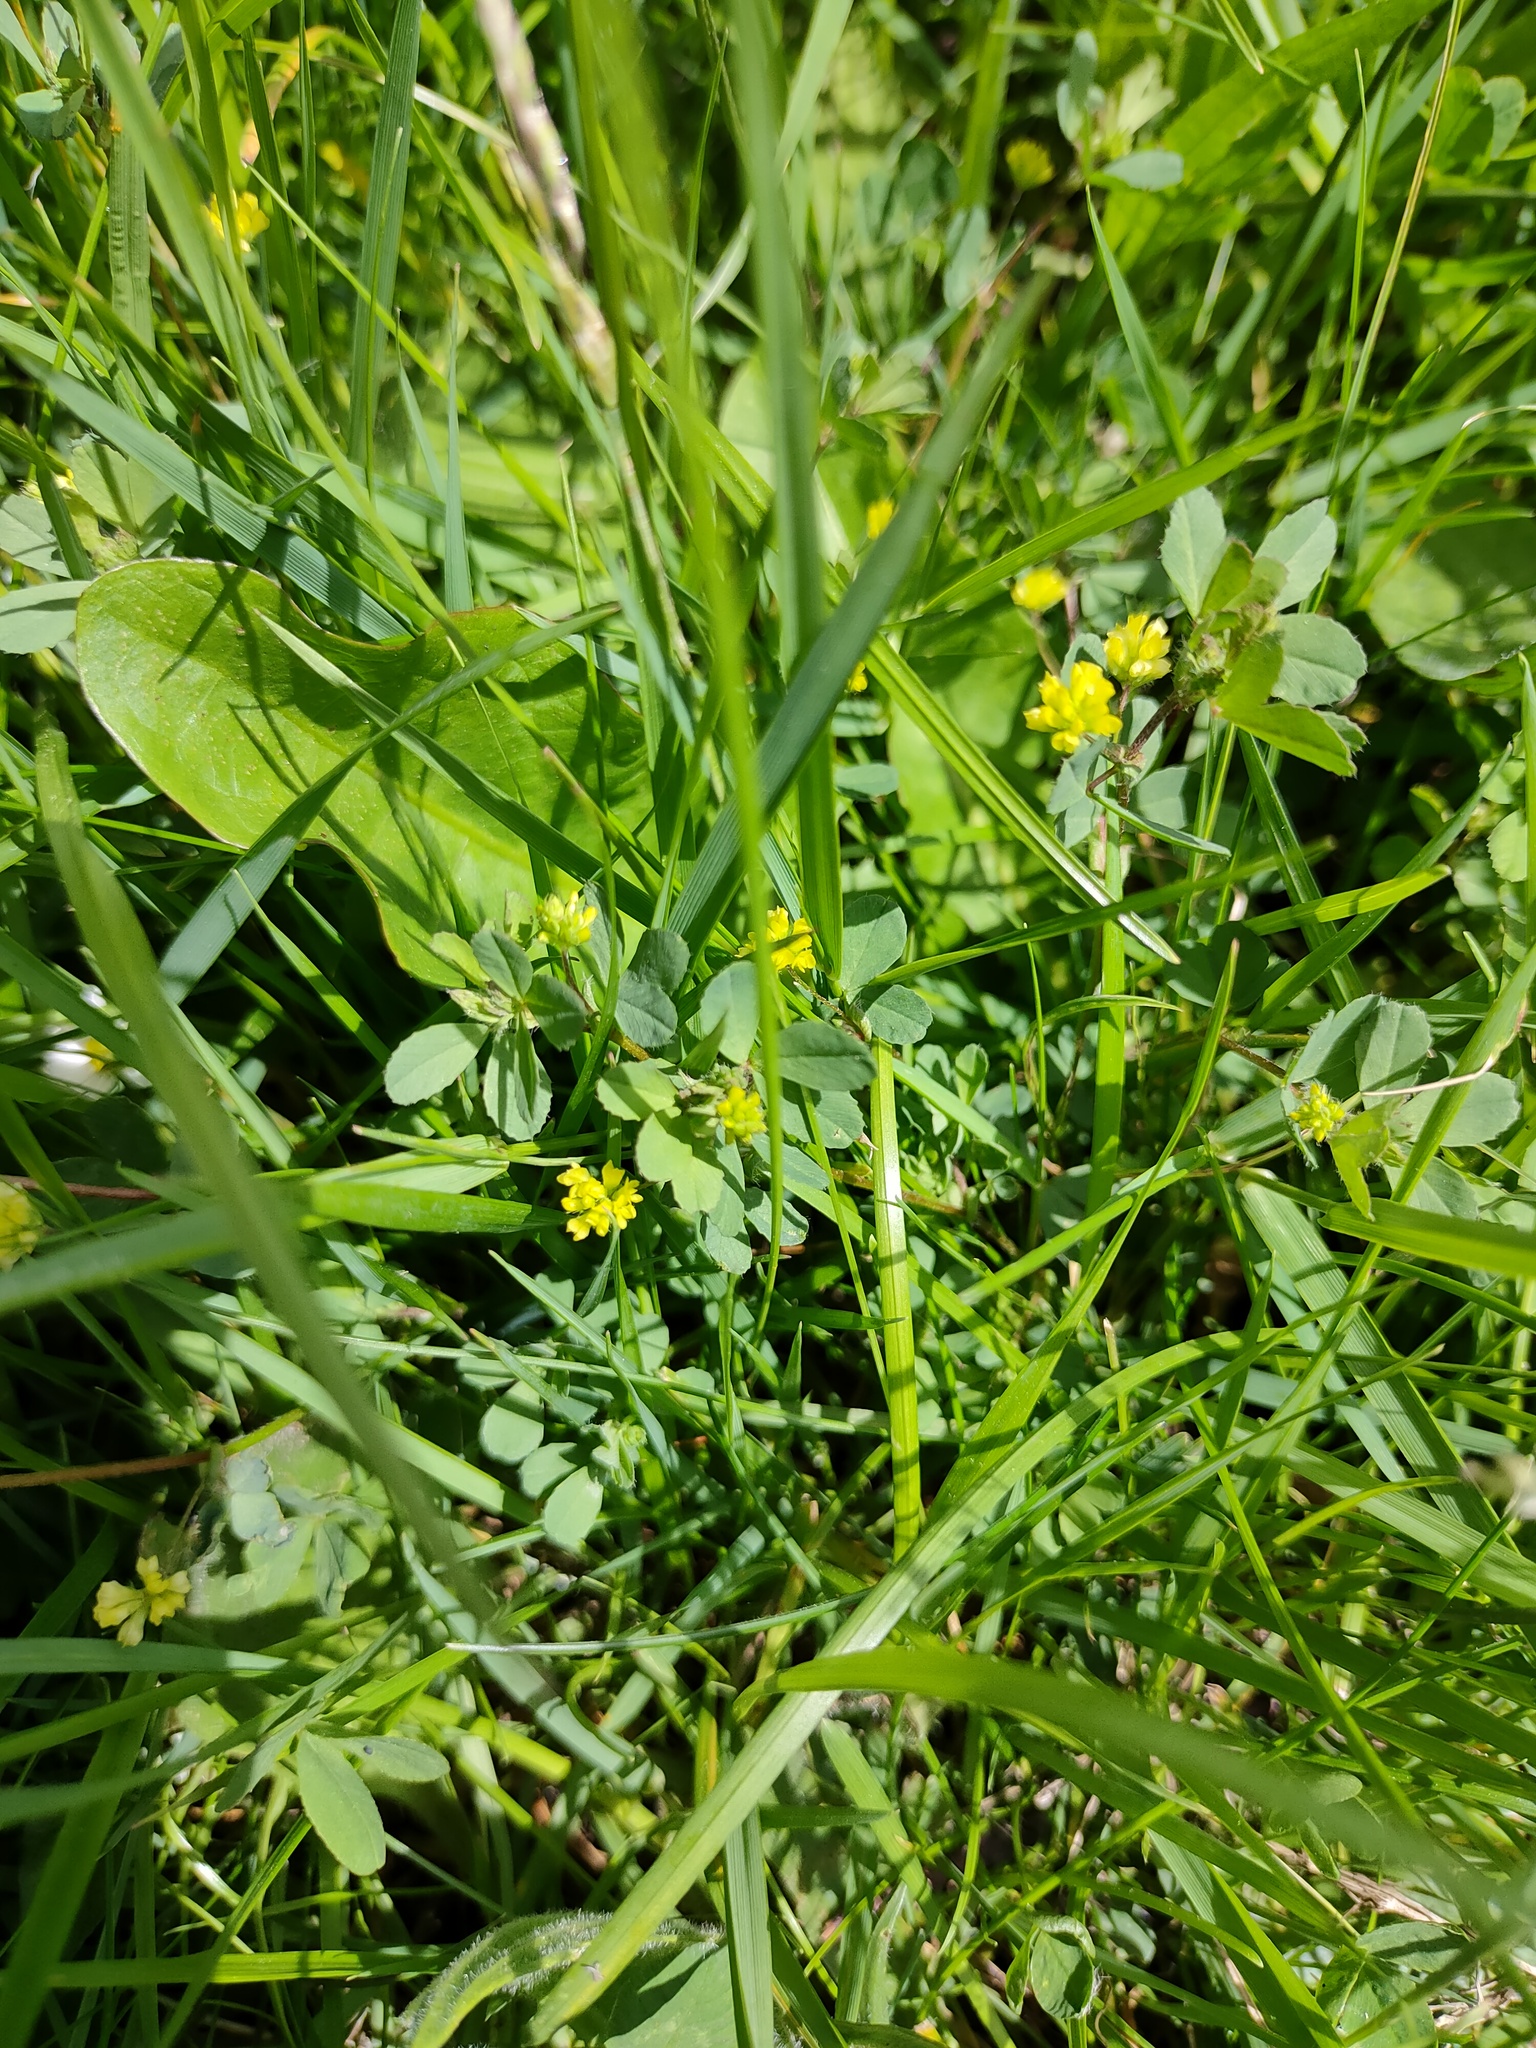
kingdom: Plantae
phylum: Tracheophyta
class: Magnoliopsida
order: Fabales
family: Fabaceae
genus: Trifolium
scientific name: Trifolium dubium
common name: Suckling clover
